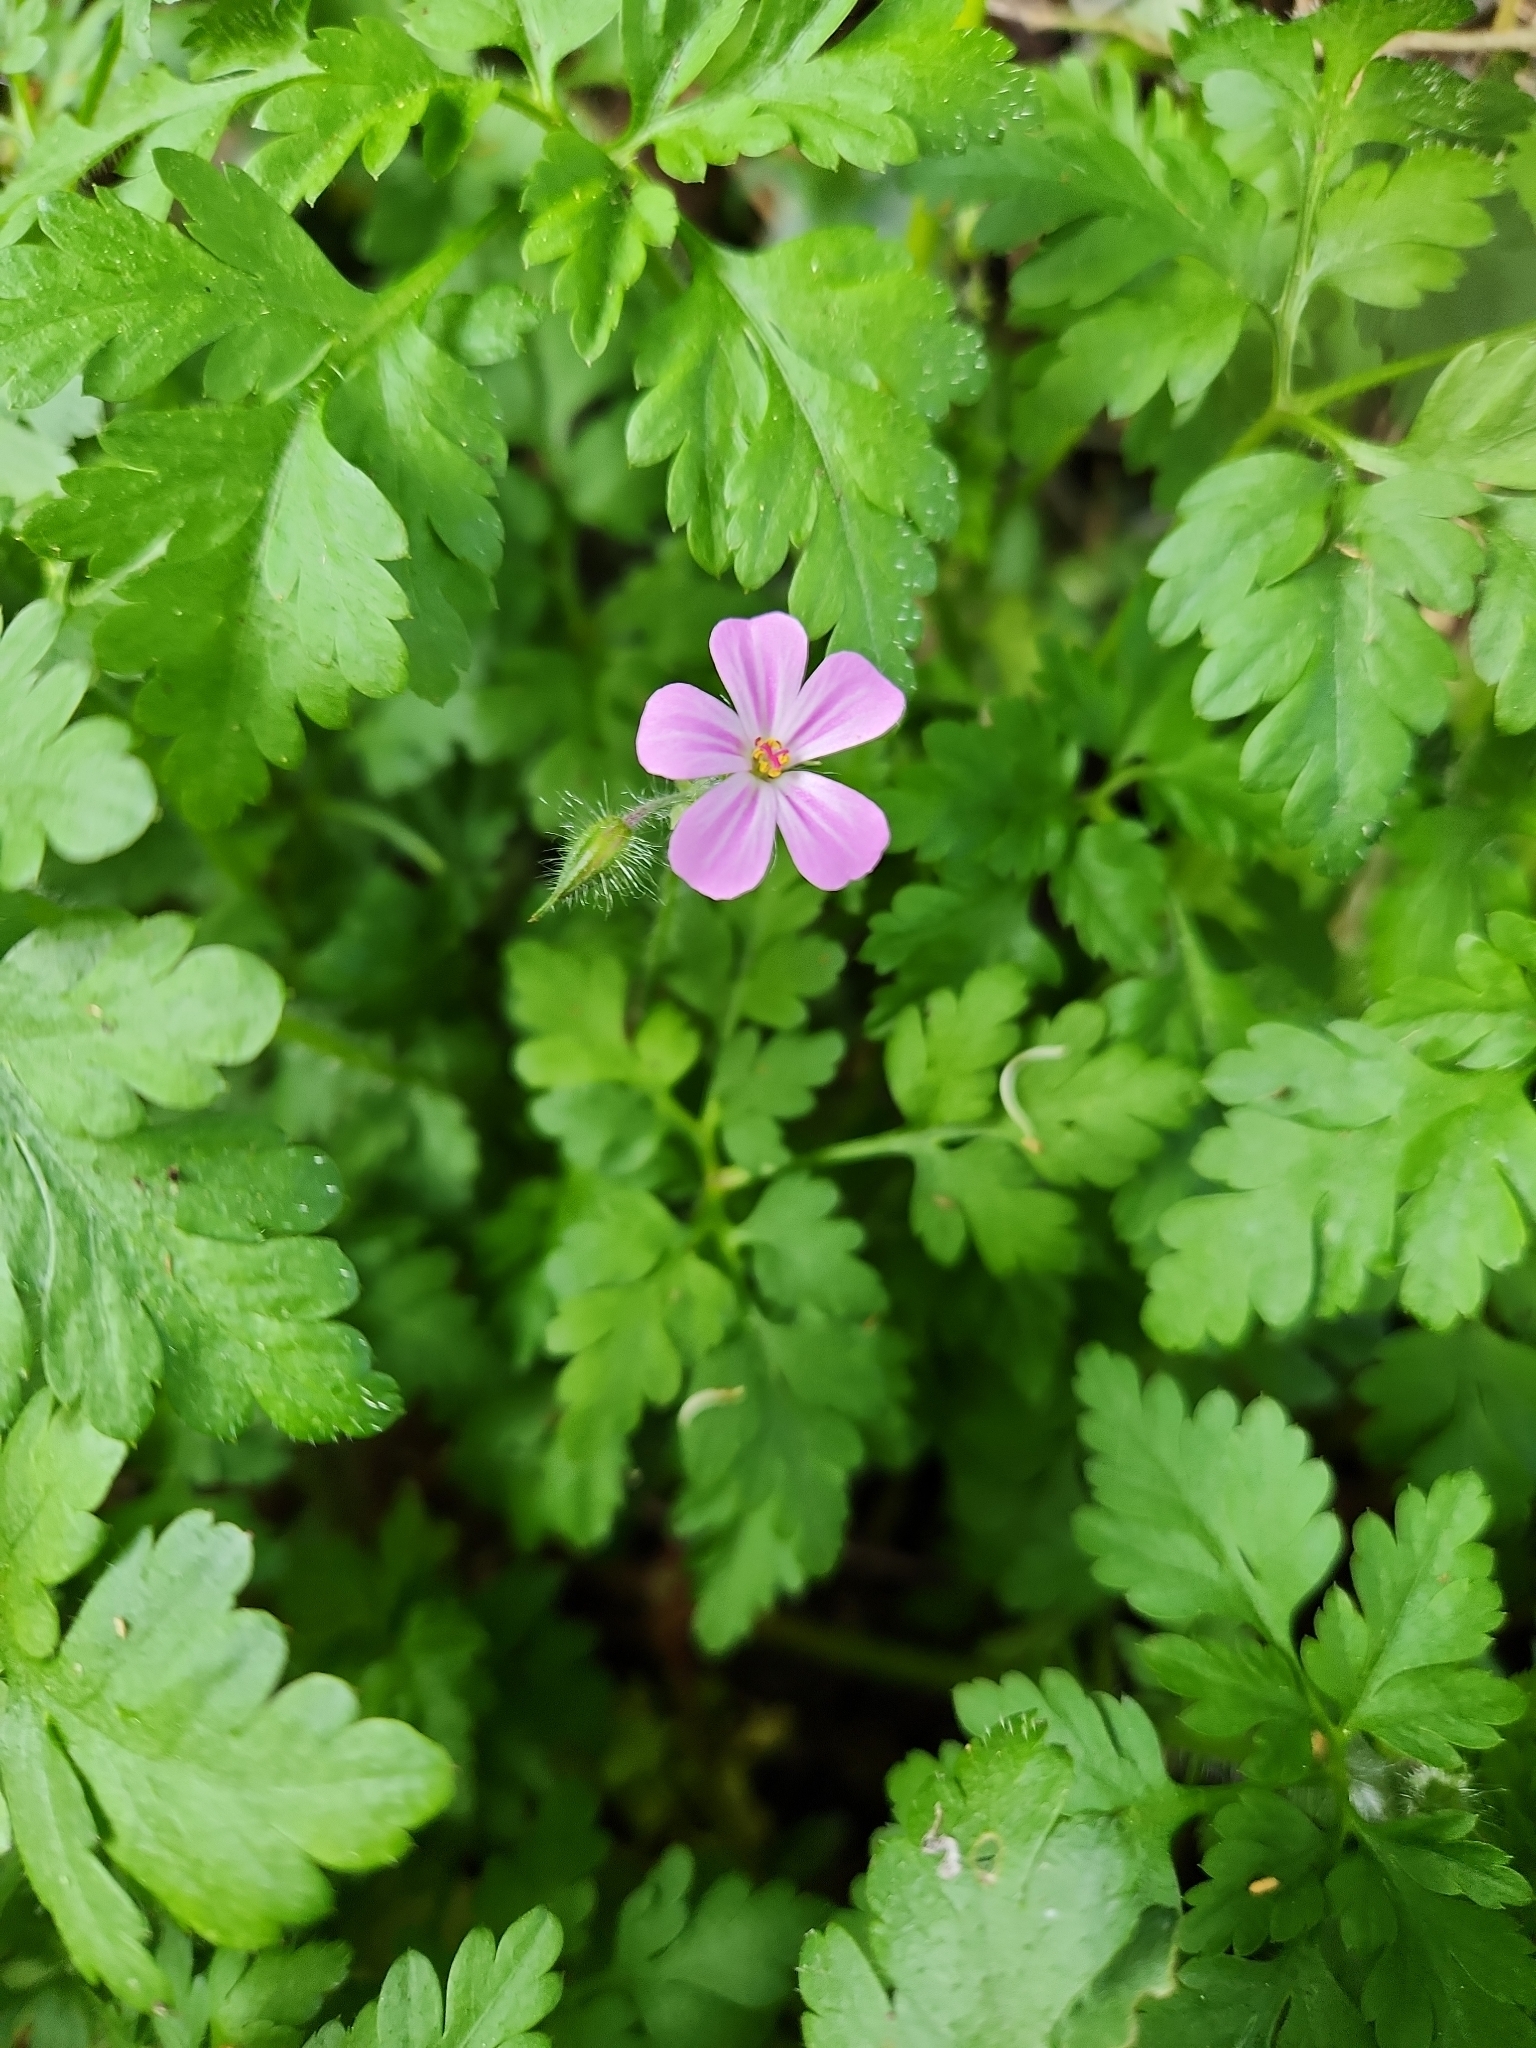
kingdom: Plantae
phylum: Tracheophyta
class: Magnoliopsida
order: Geraniales
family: Geraniaceae
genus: Geranium
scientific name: Geranium robertianum
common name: Herb-robert
